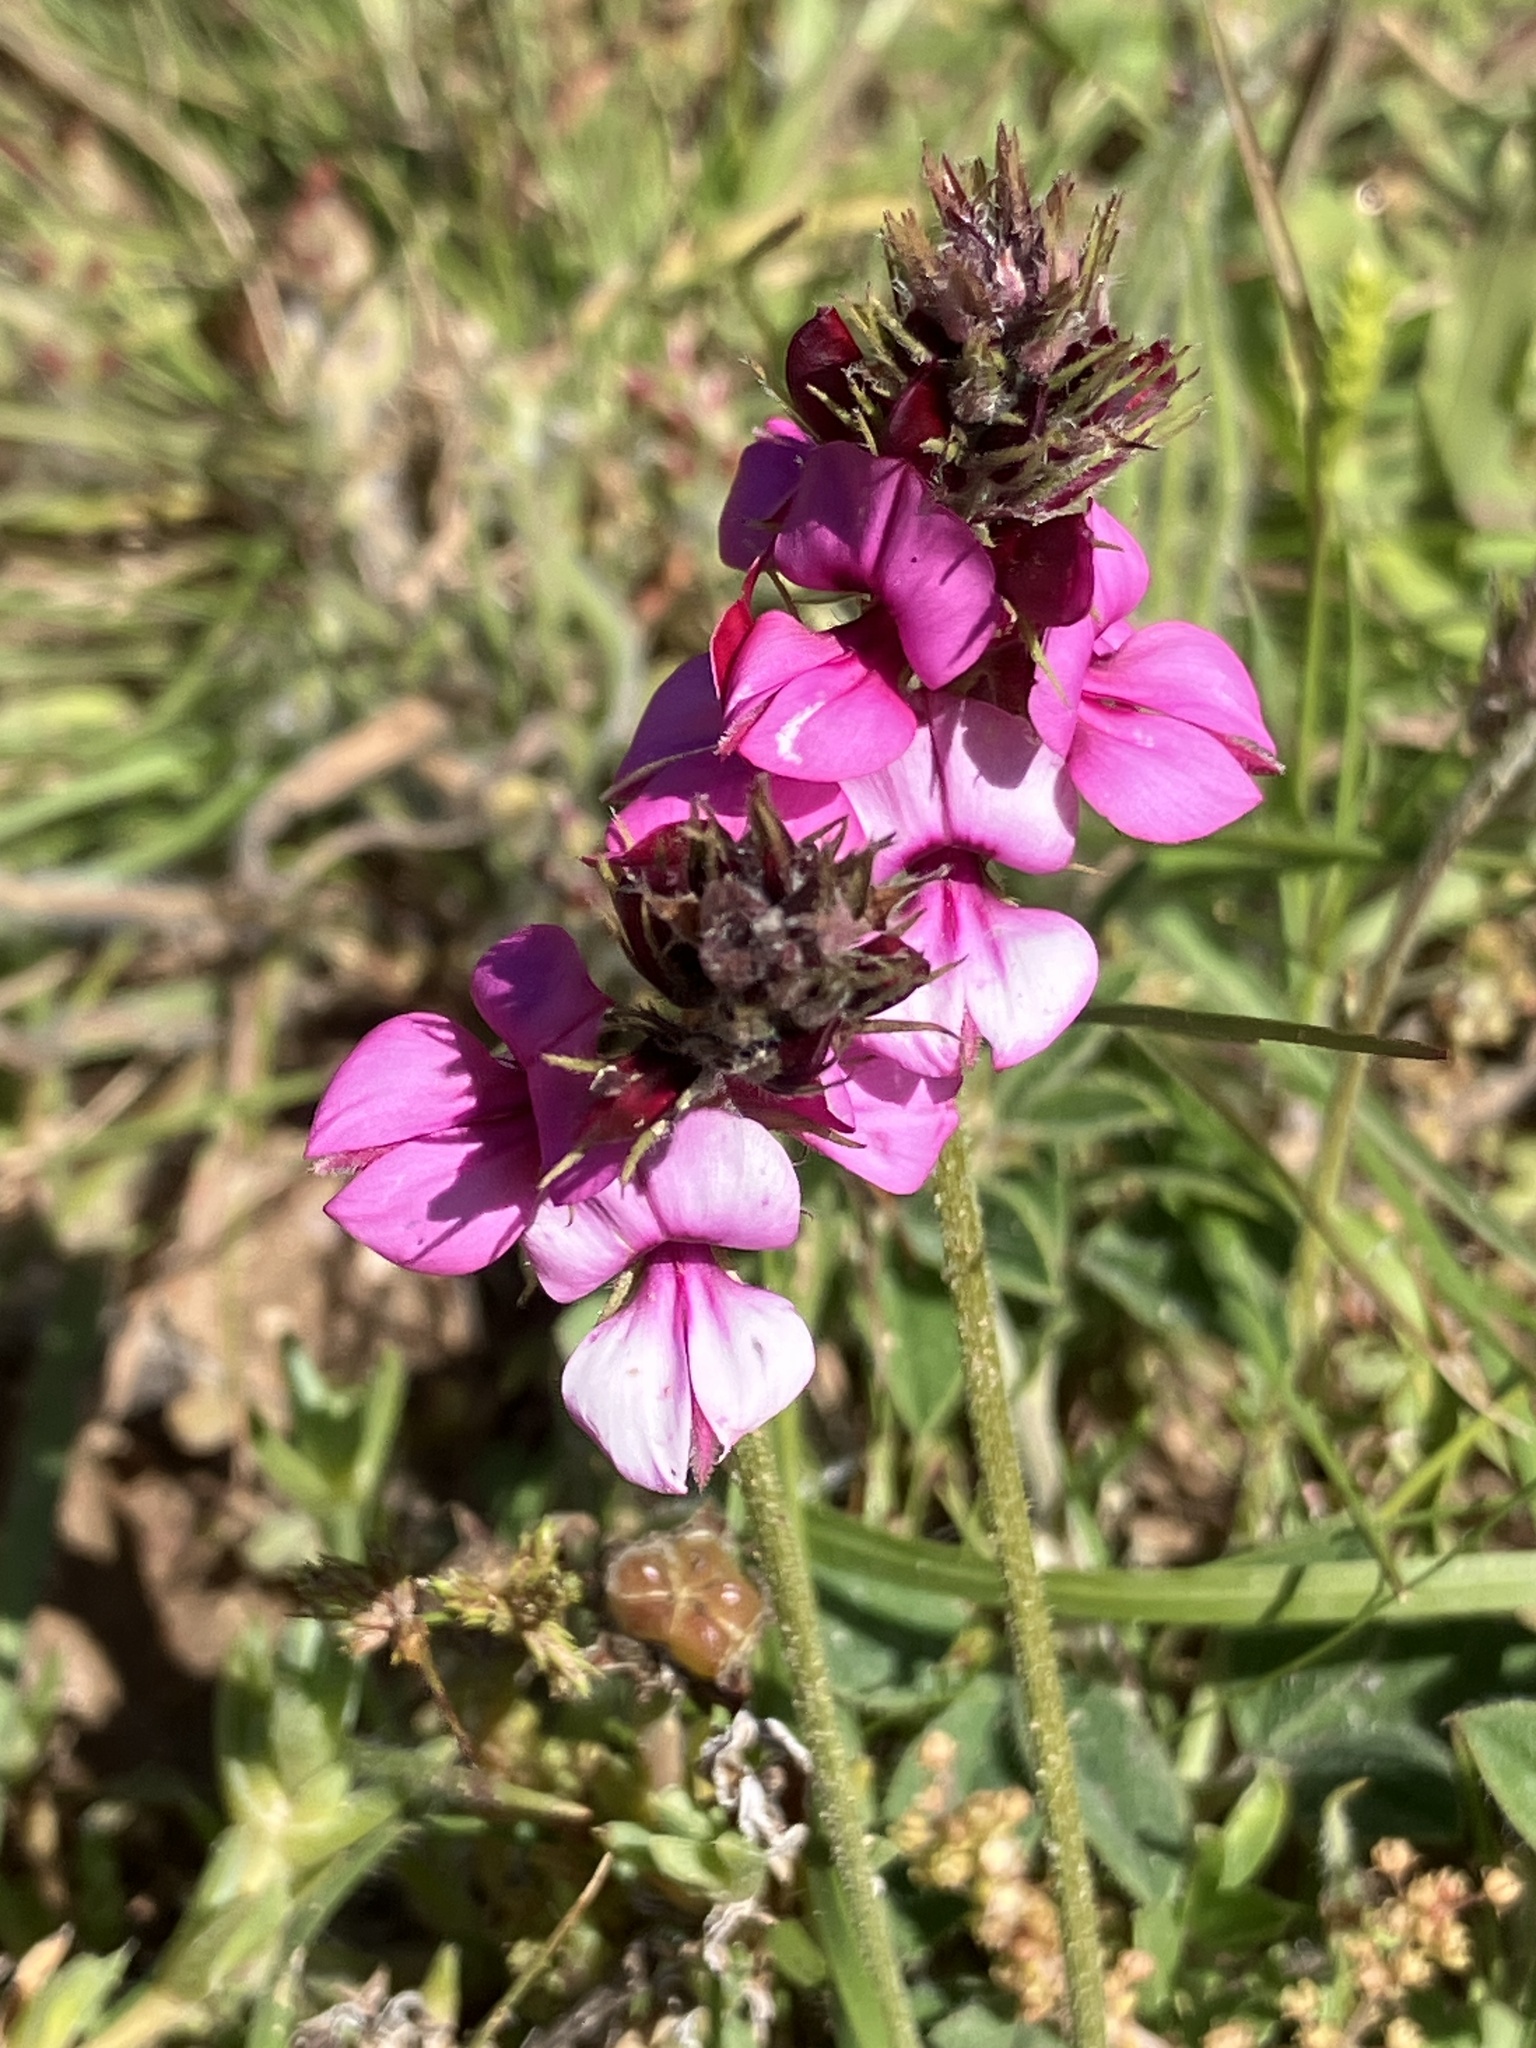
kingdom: Plantae
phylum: Tracheophyta
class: Magnoliopsida
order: Fabales
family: Fabaceae
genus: Indigofera
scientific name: Indigofera incana
